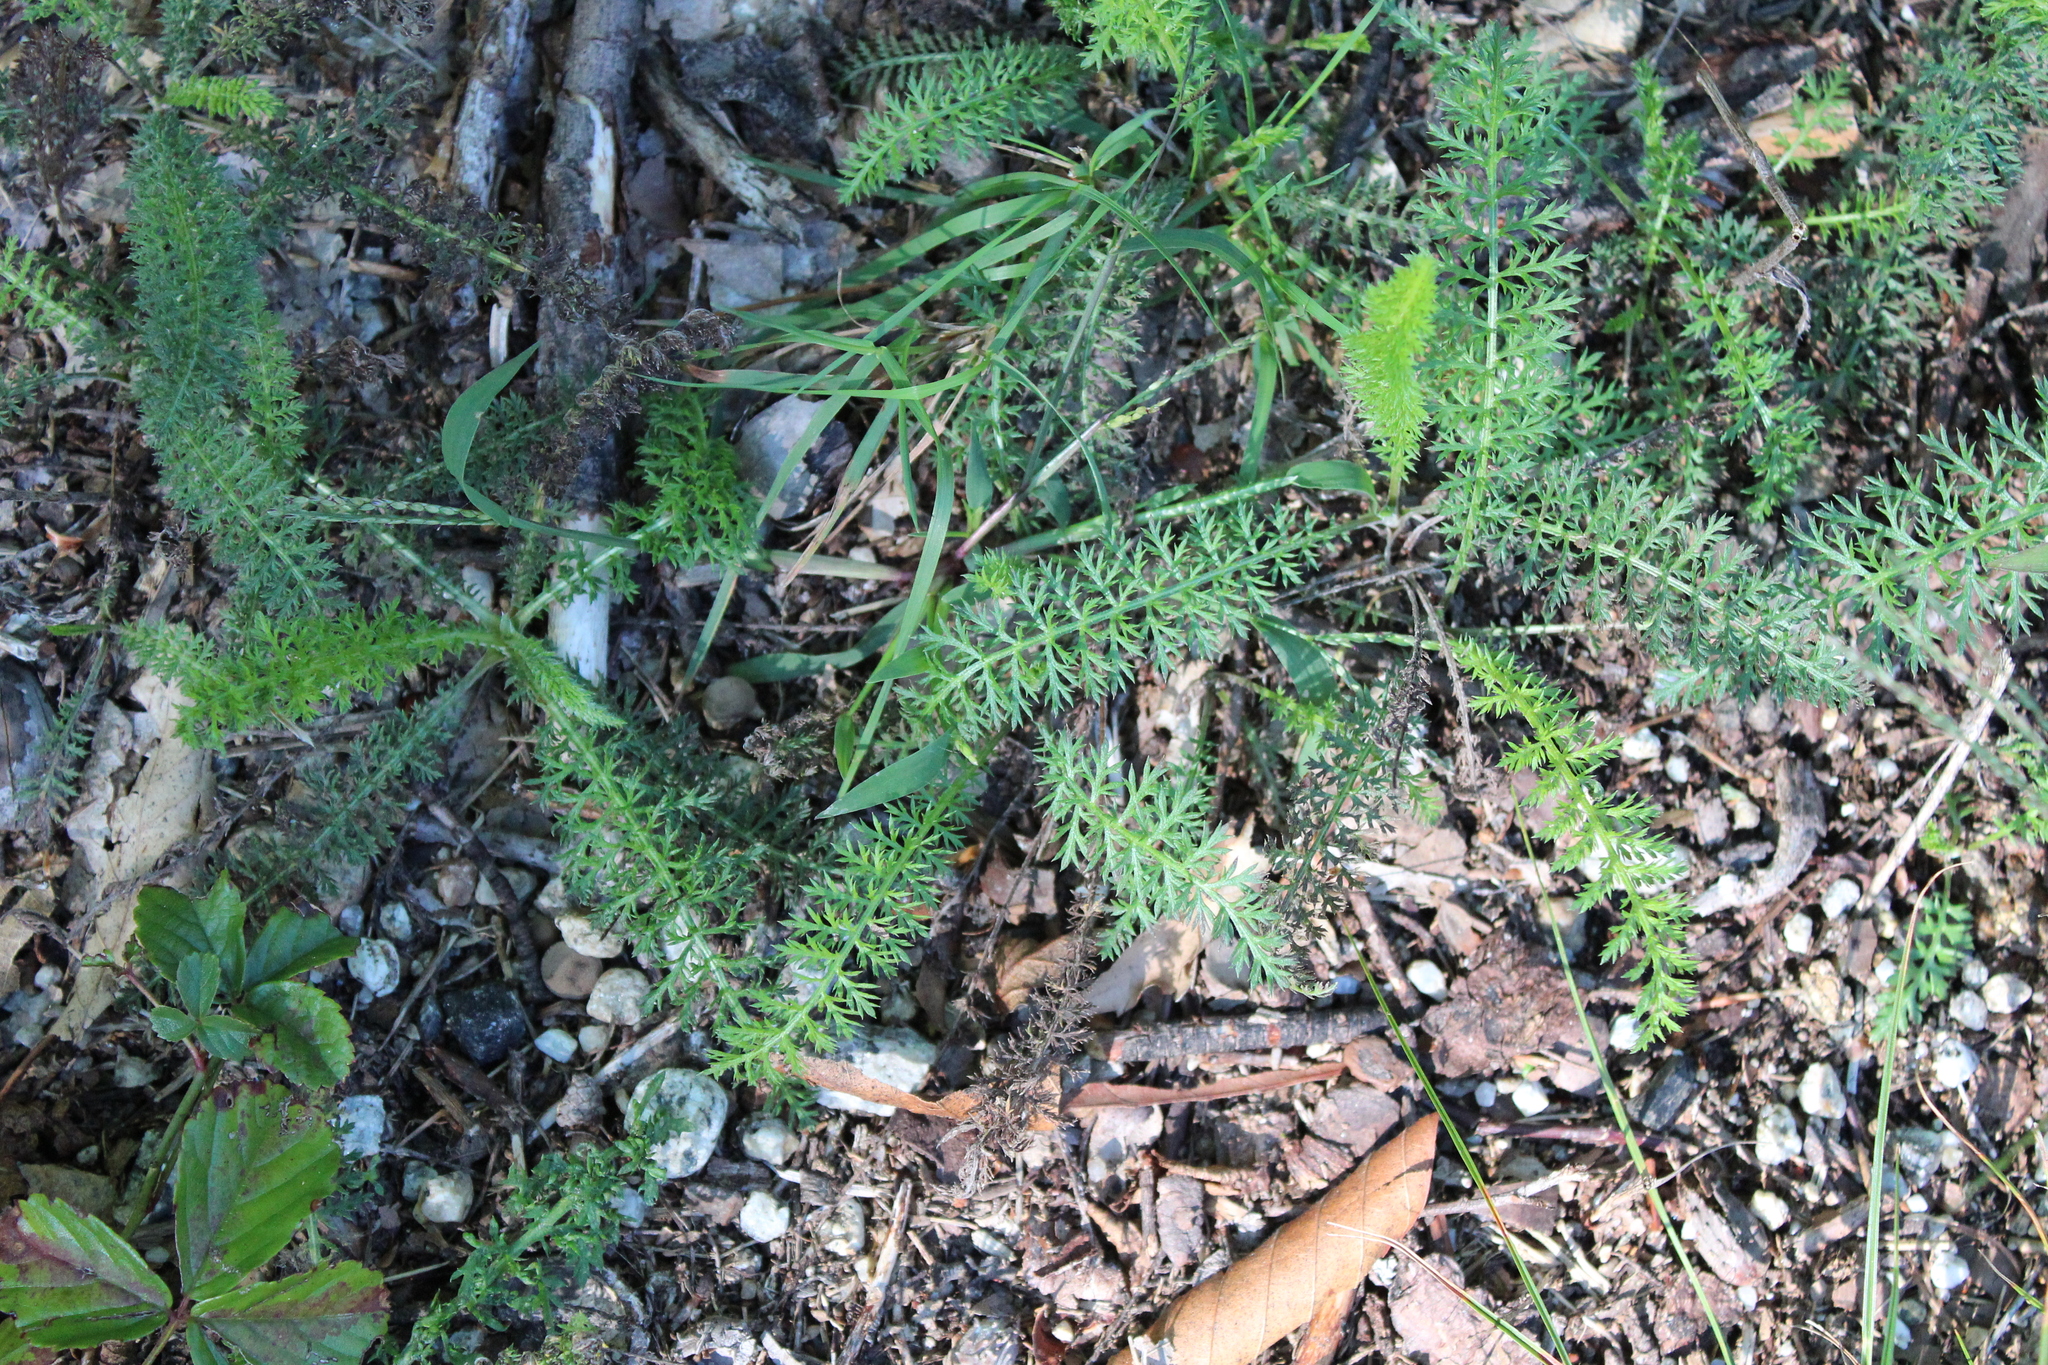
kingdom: Plantae
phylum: Tracheophyta
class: Magnoliopsida
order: Asterales
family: Asteraceae
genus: Achillea
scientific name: Achillea millefolium
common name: Yarrow
